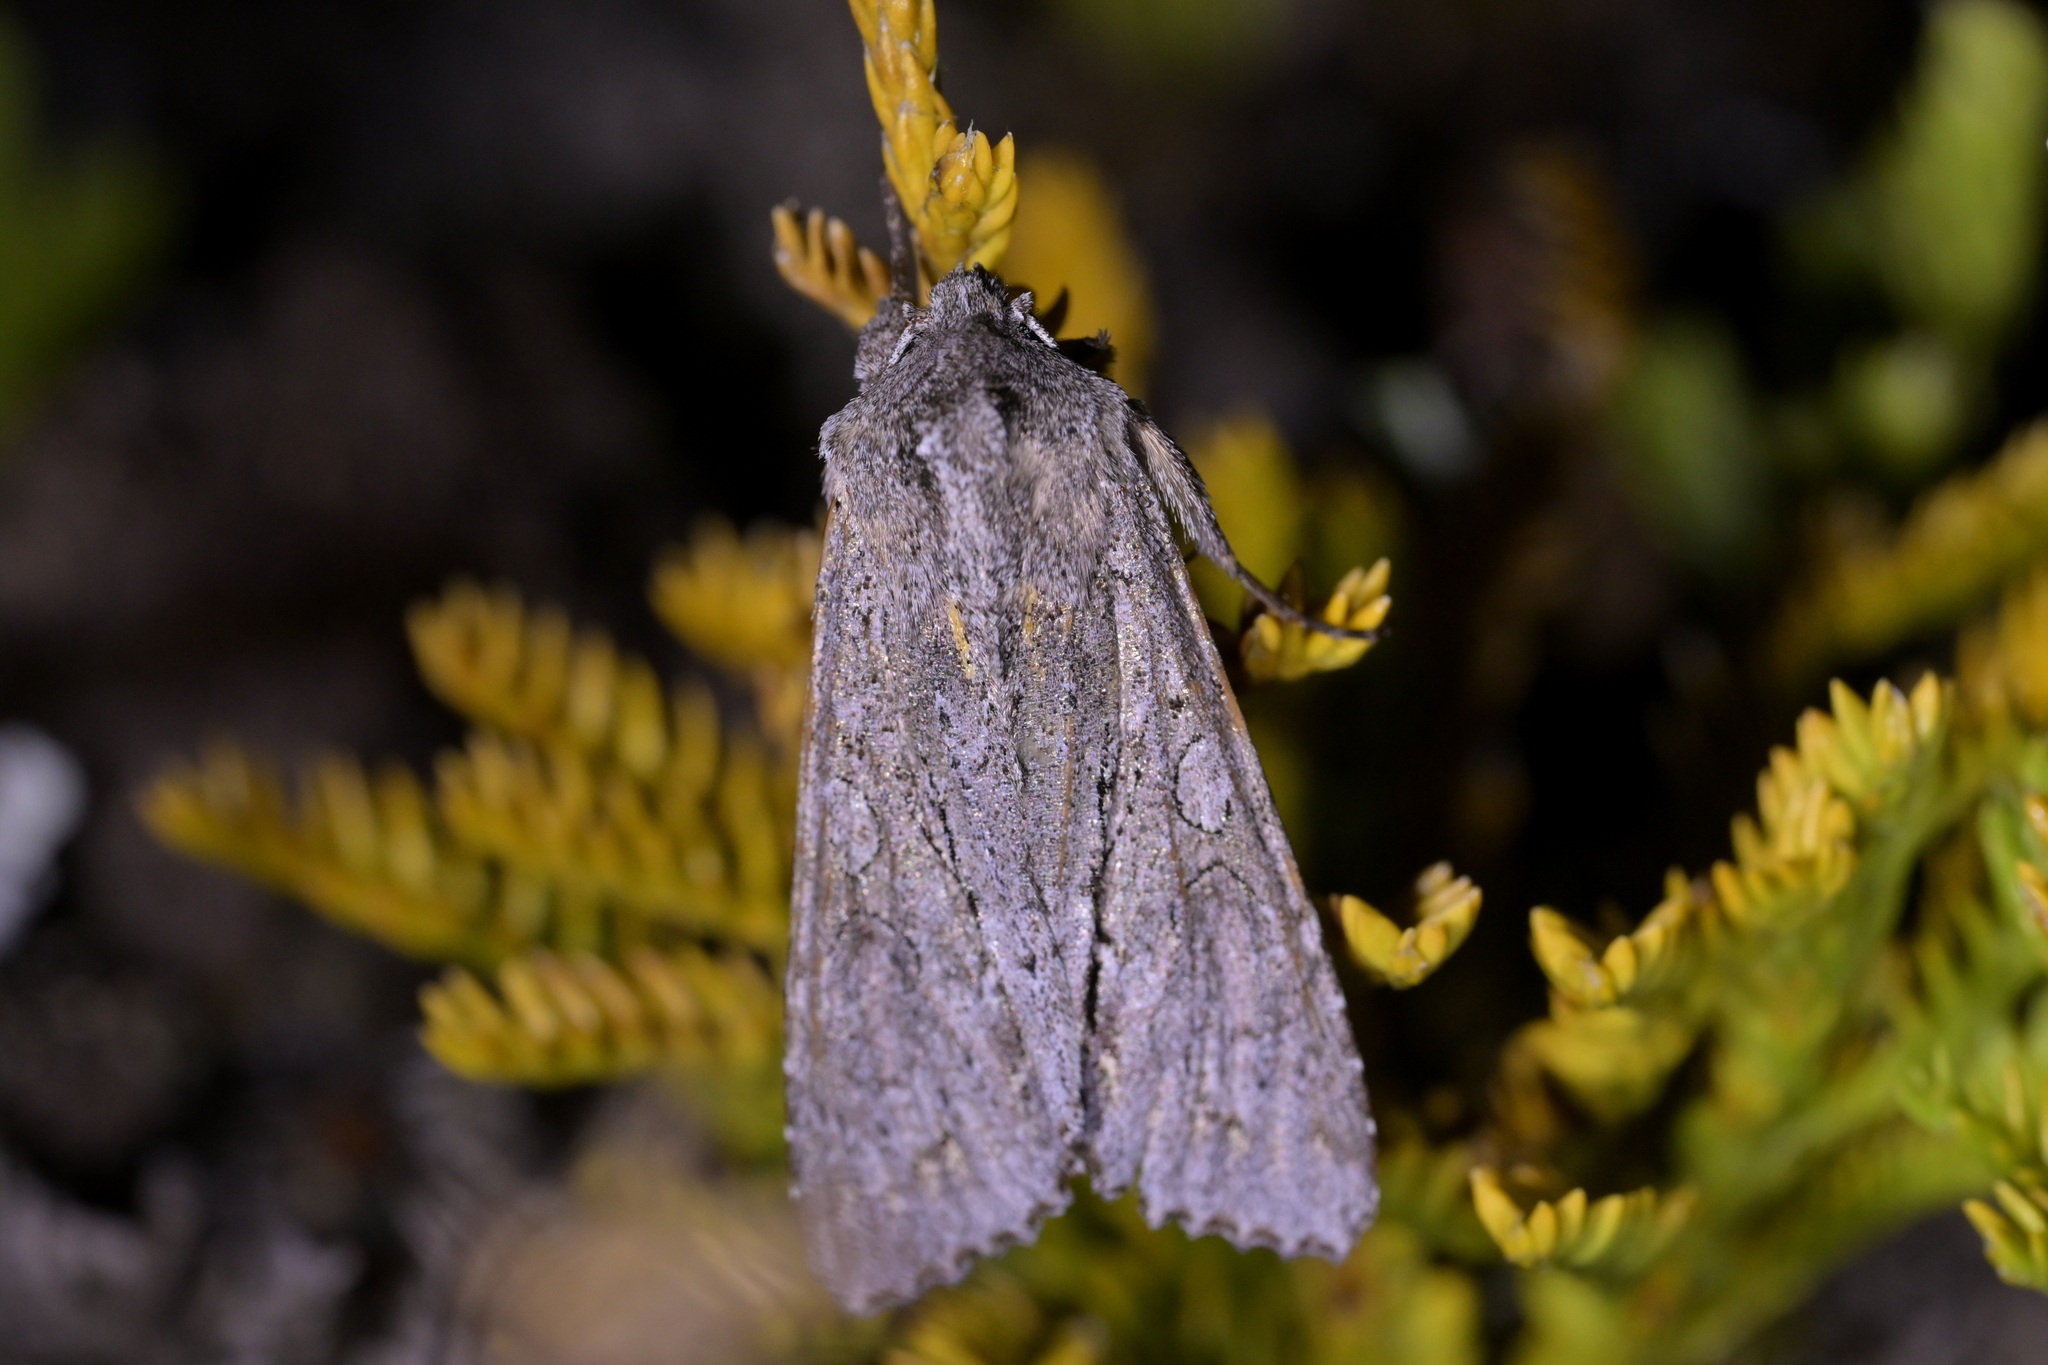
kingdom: Animalia
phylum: Arthropoda
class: Insecta
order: Lepidoptera
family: Noctuidae
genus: Ichneutica
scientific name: Ichneutica
